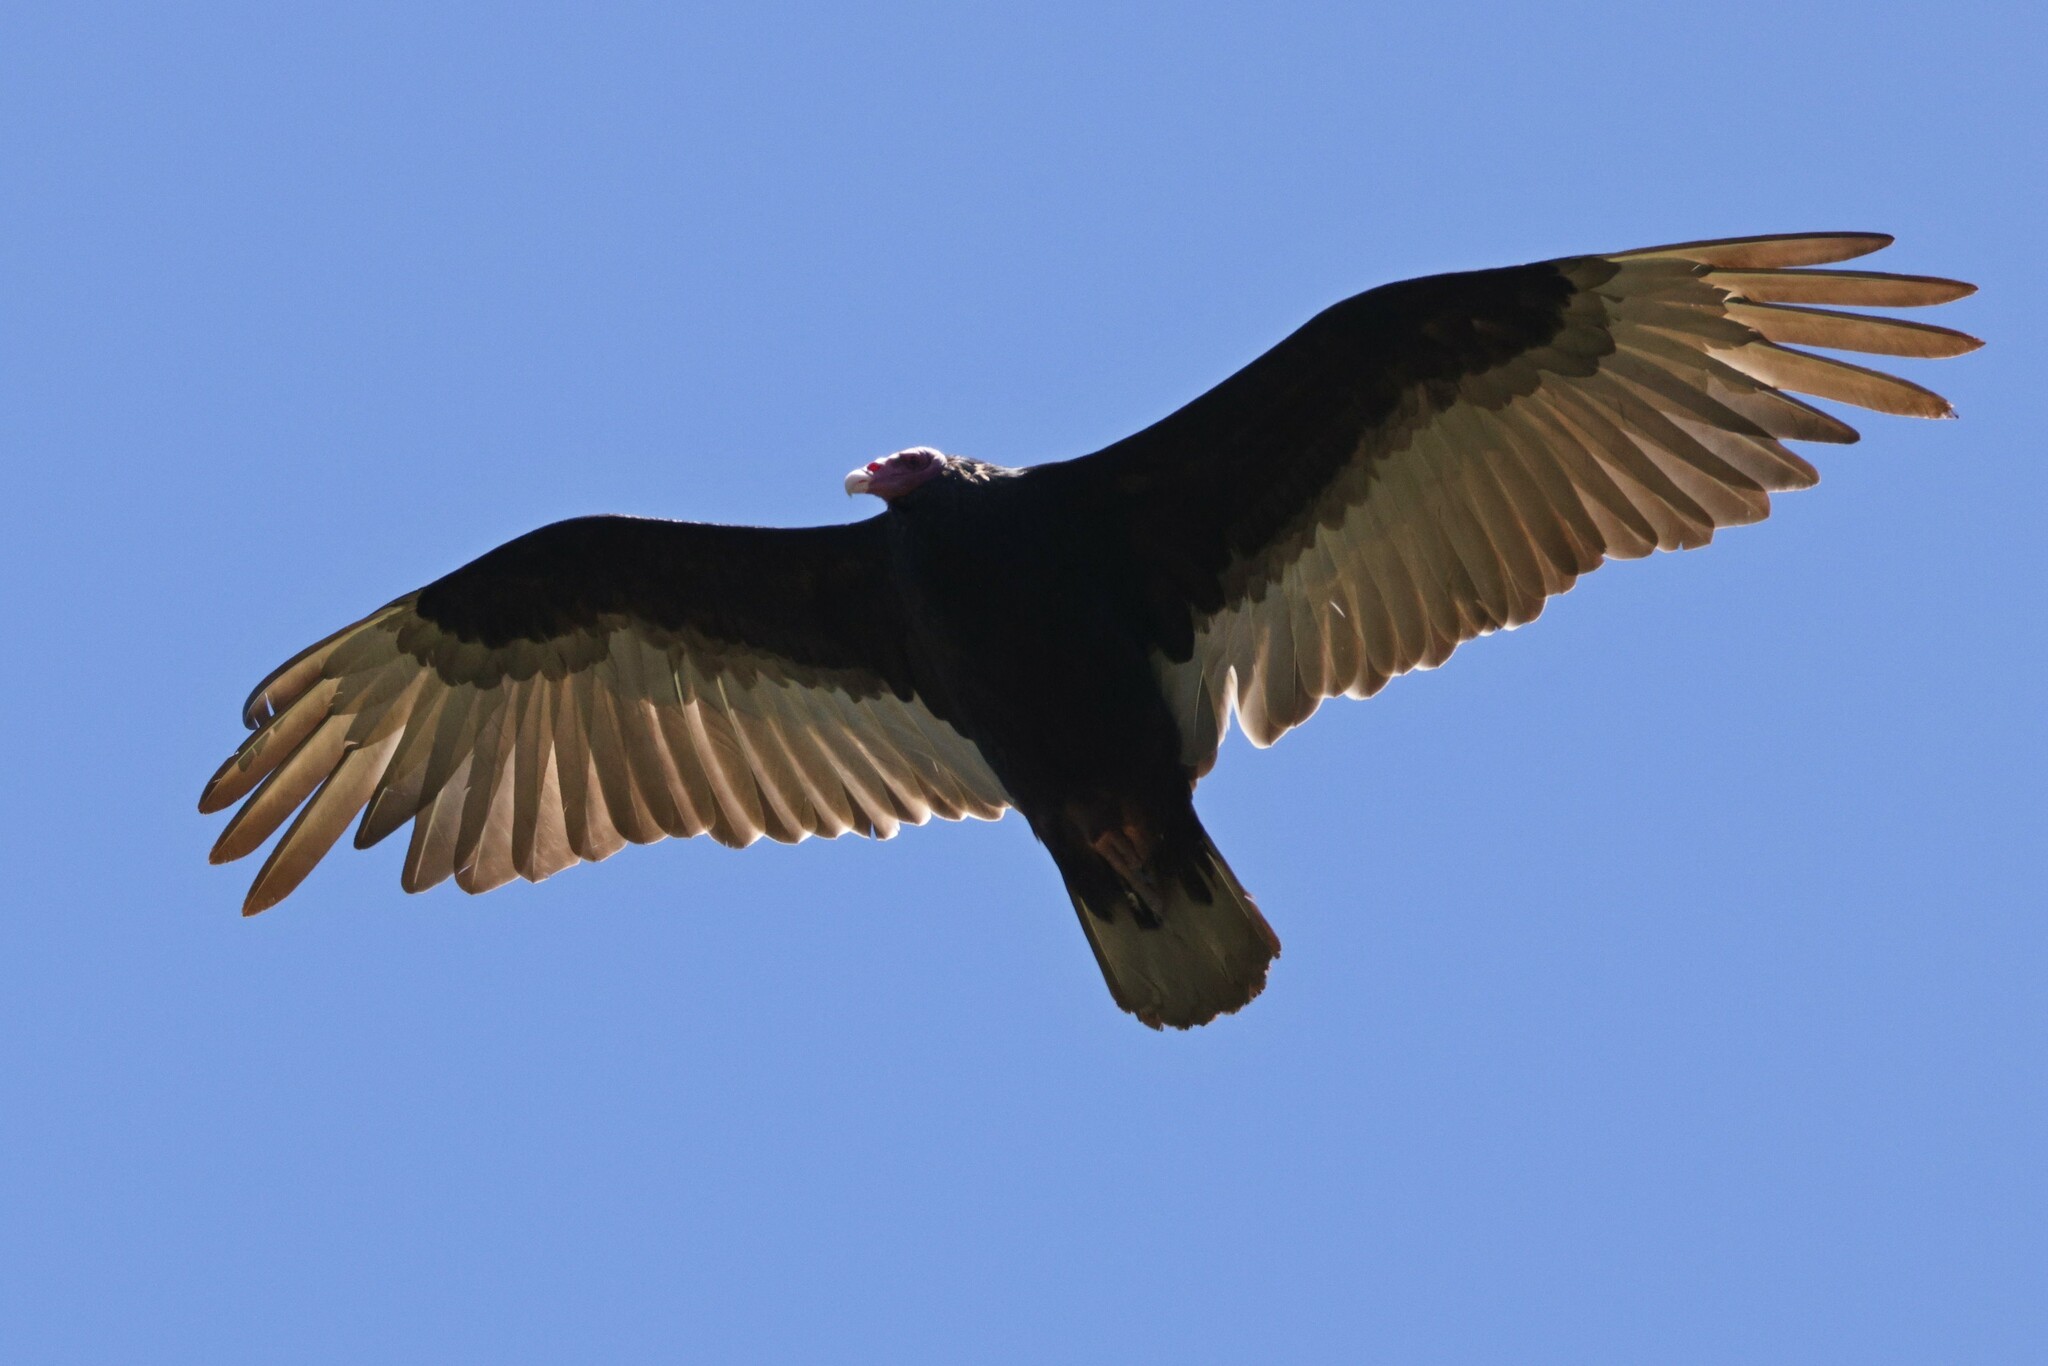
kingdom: Animalia
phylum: Chordata
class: Aves
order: Accipitriformes
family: Cathartidae
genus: Cathartes
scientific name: Cathartes aura
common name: Turkey vulture
